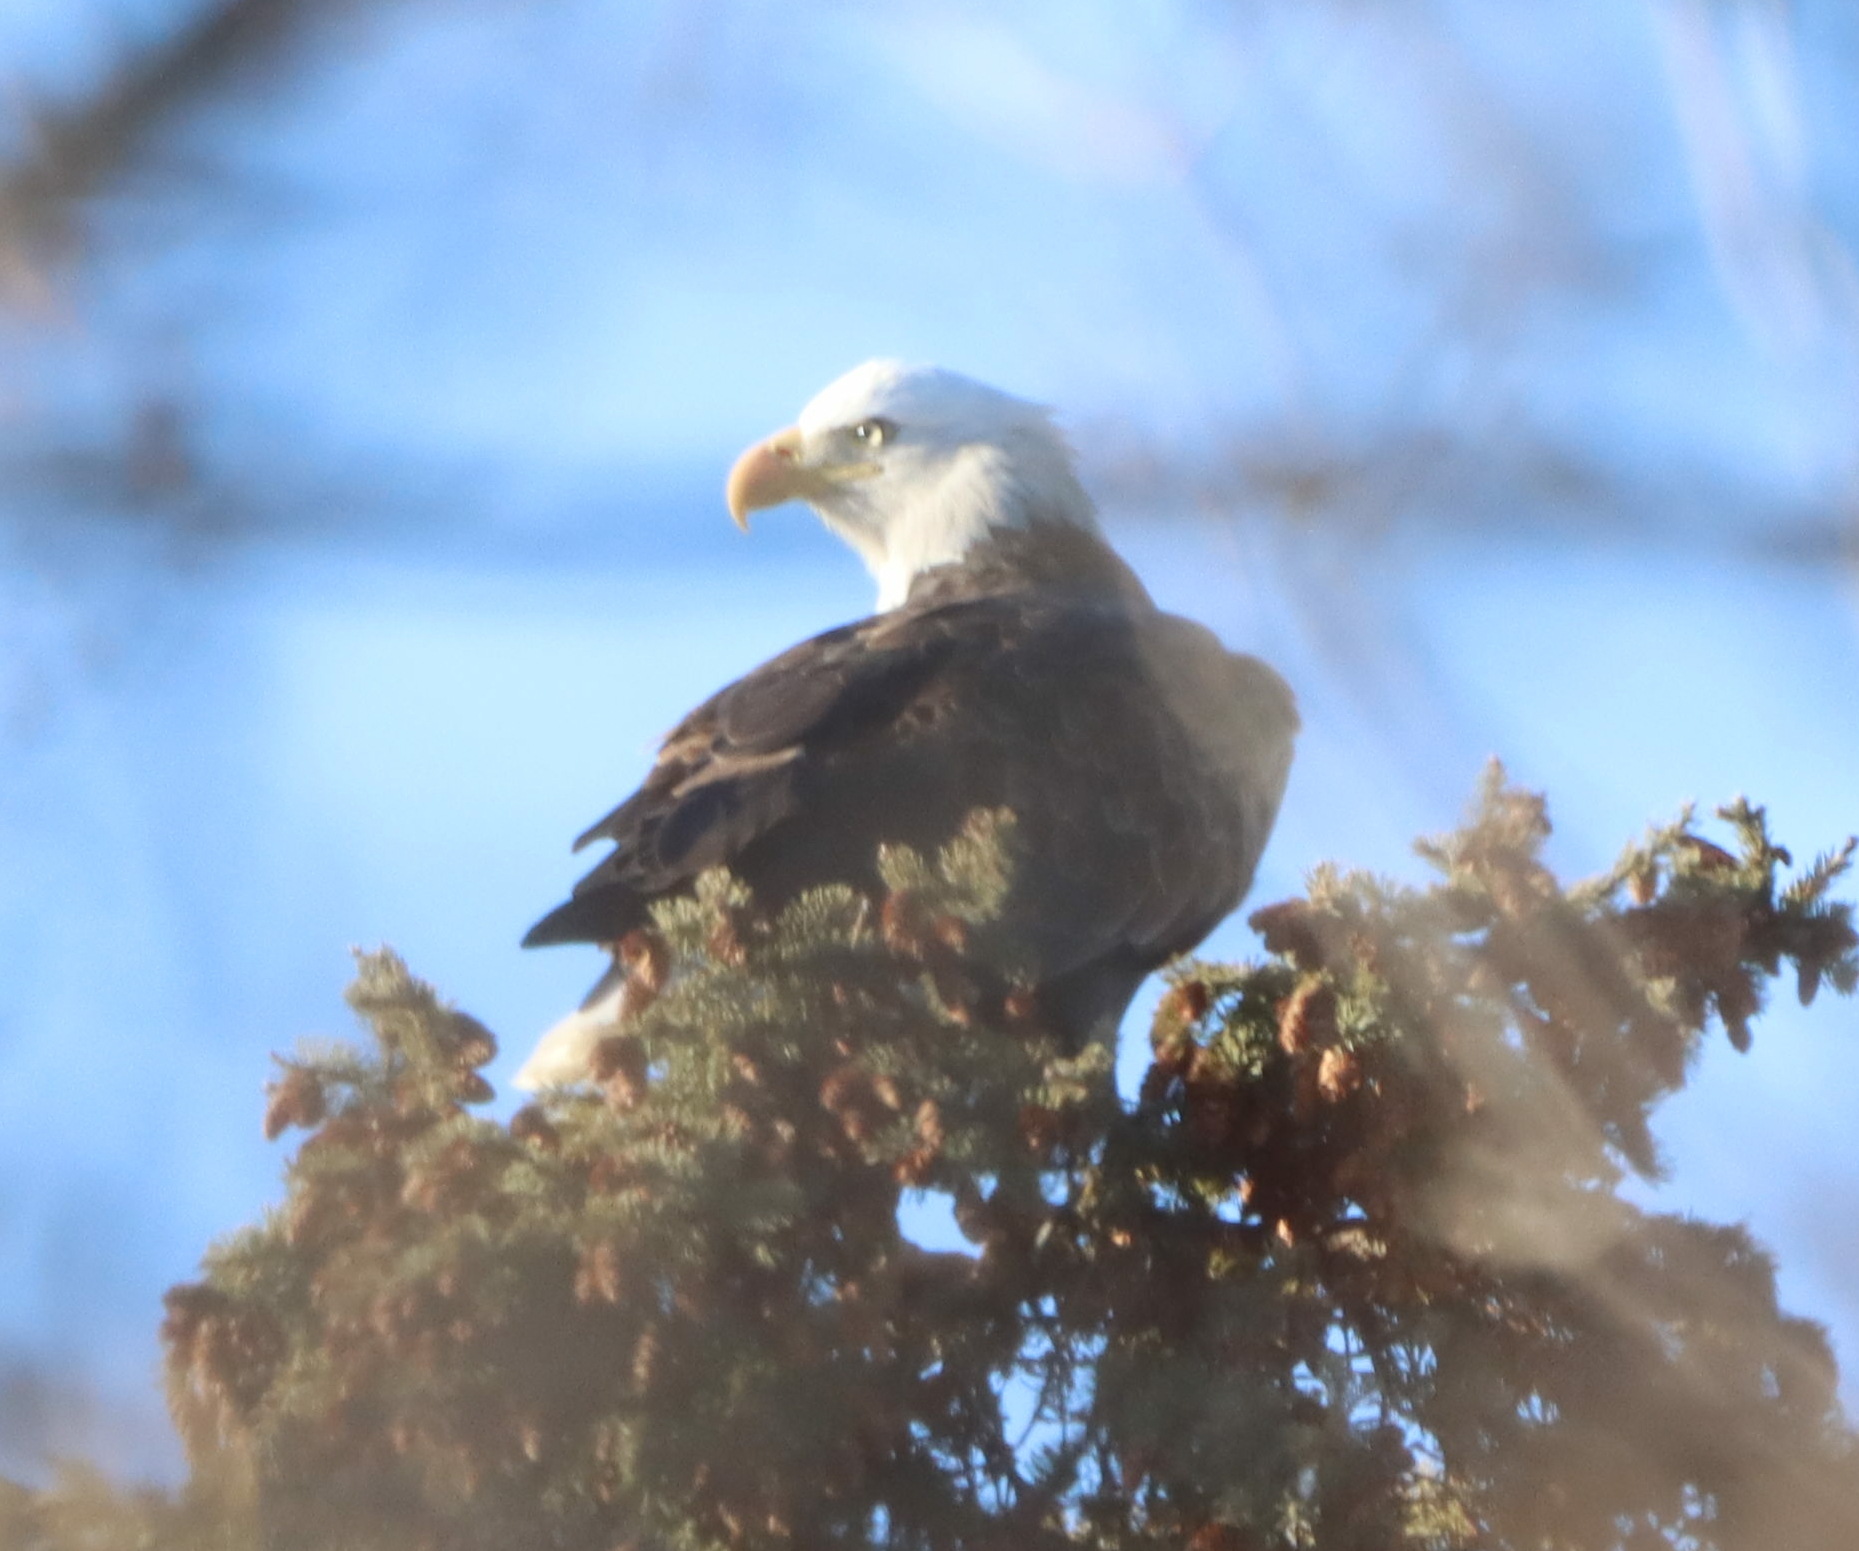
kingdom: Animalia
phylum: Chordata
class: Aves
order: Accipitriformes
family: Accipitridae
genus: Haliaeetus
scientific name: Haliaeetus leucocephalus
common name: Bald eagle
